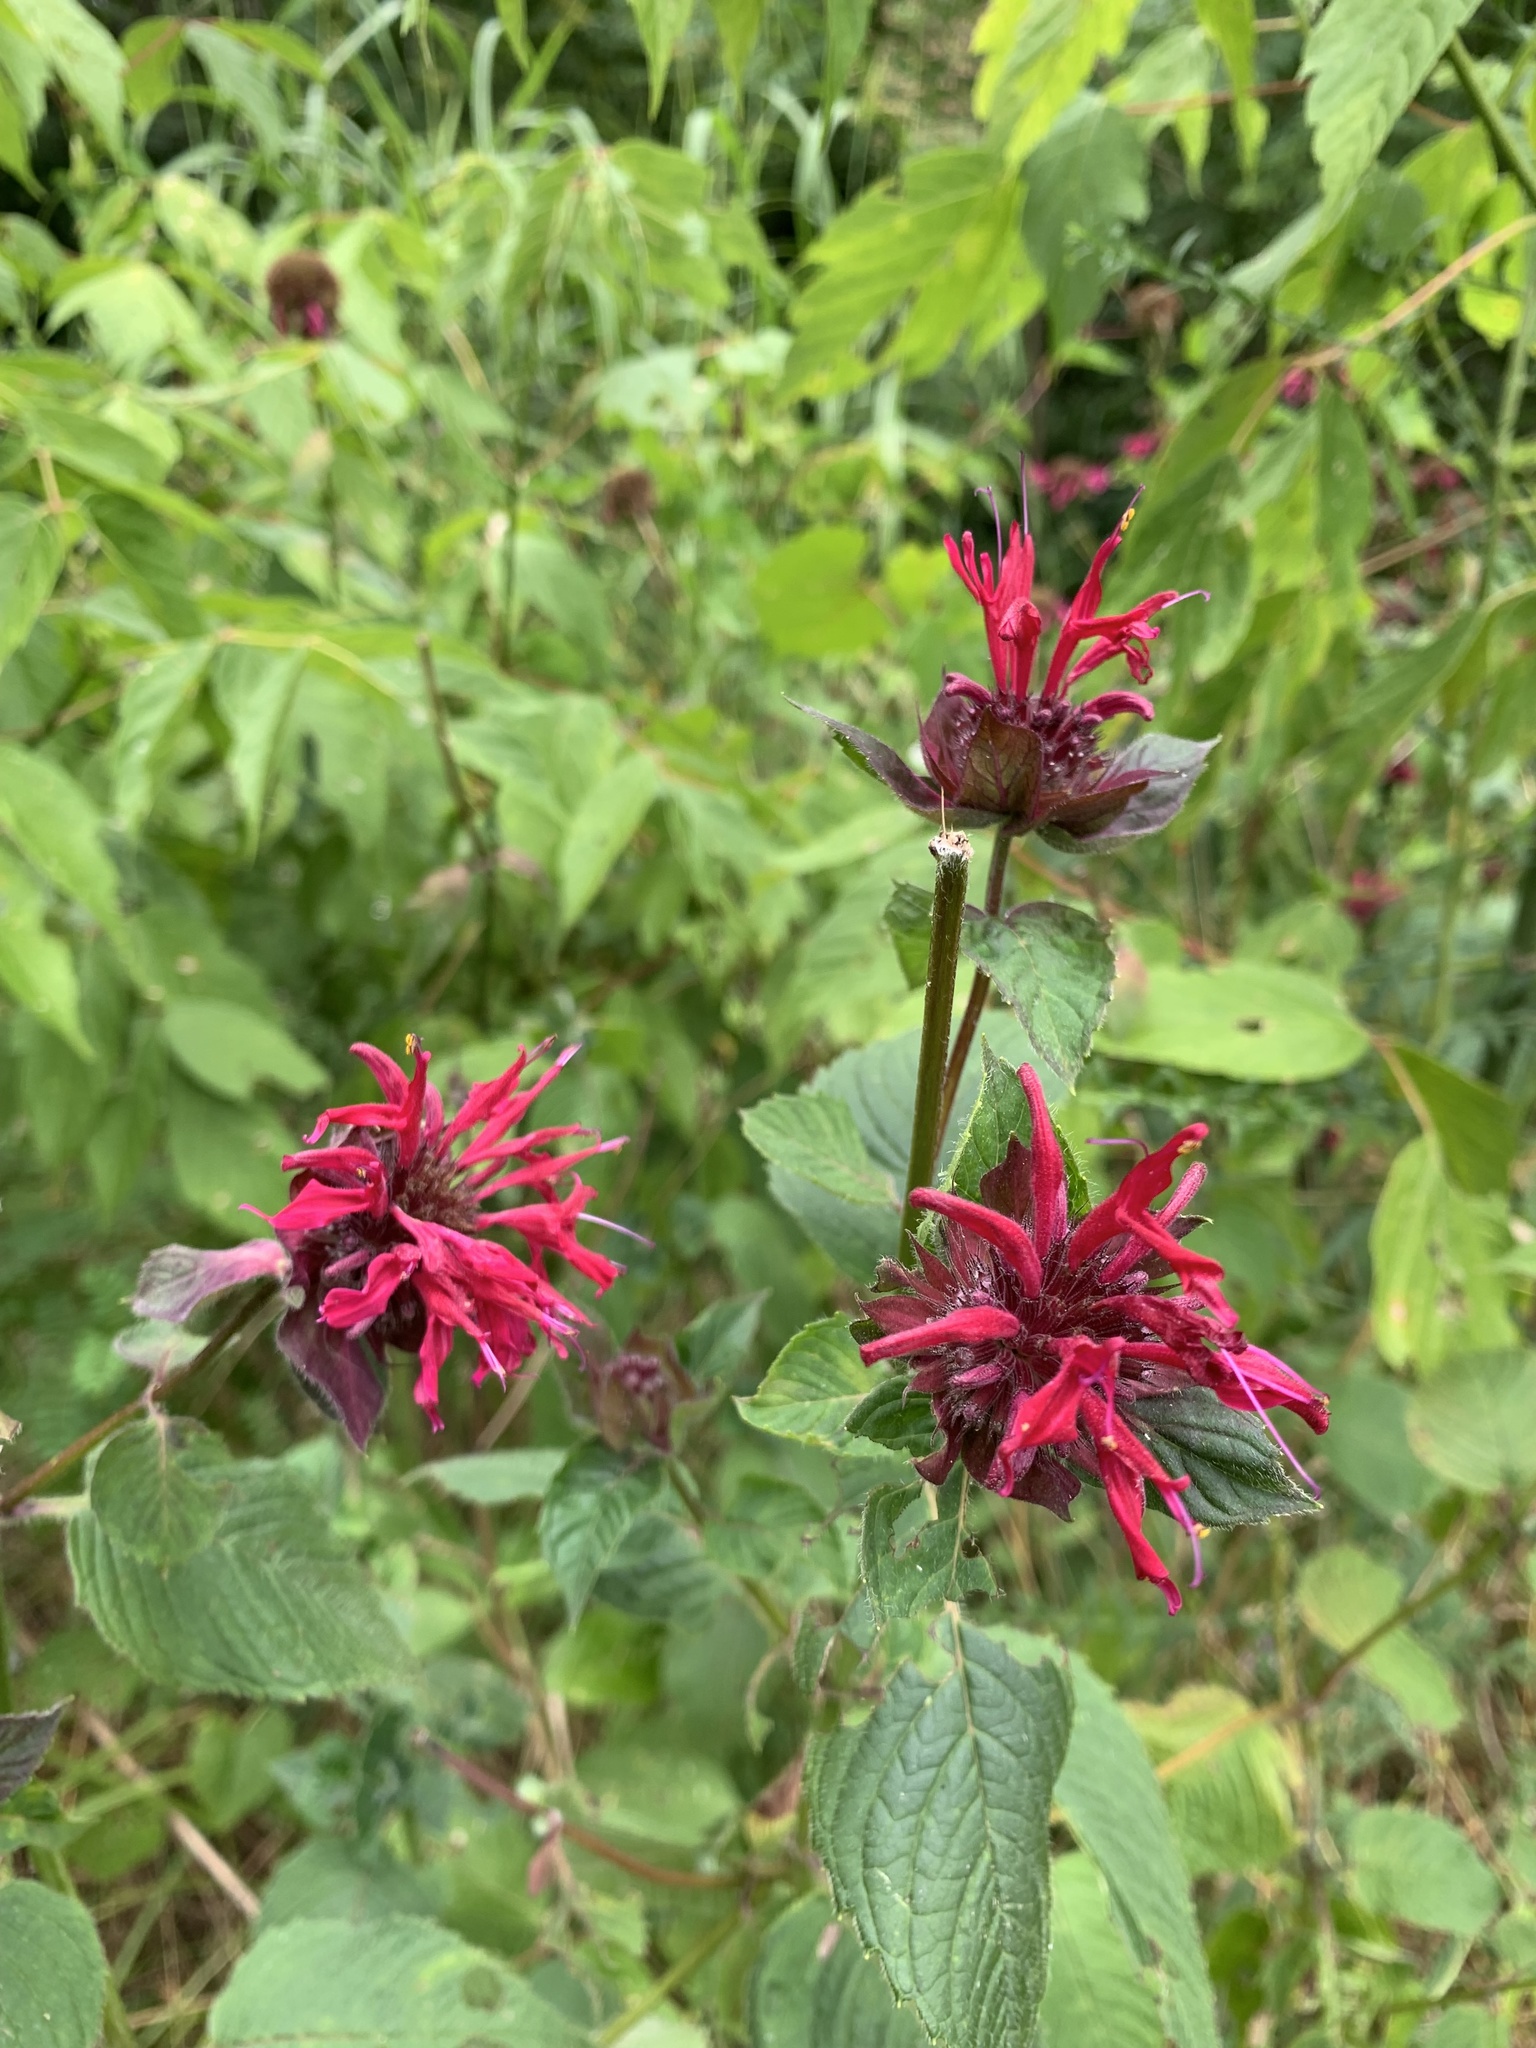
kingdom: Plantae
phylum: Tracheophyta
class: Magnoliopsida
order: Lamiales
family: Lamiaceae
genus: Monarda
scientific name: Monarda didyma
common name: Beebalm
